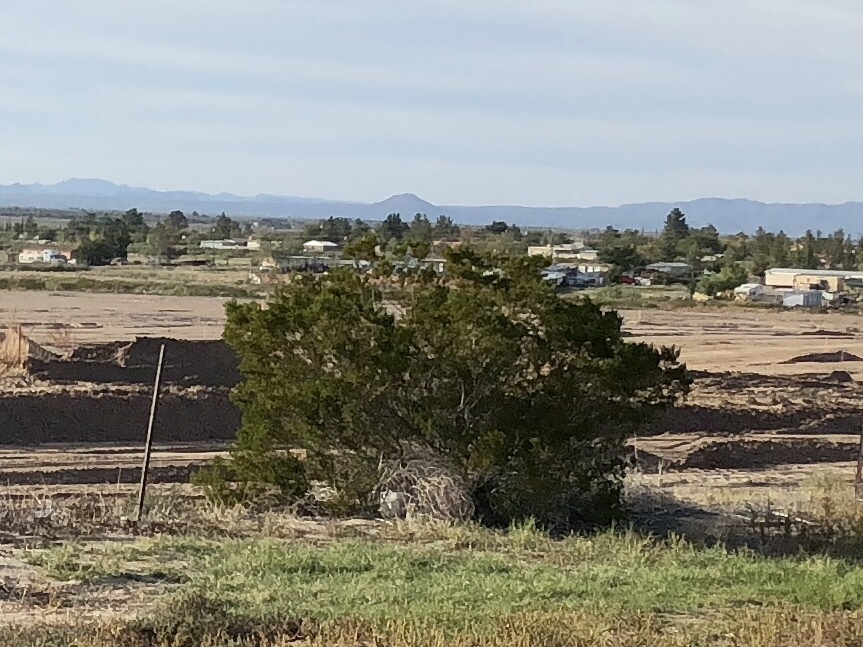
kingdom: Plantae
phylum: Tracheophyta
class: Magnoliopsida
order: Zygophyllales
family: Zygophyllaceae
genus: Larrea
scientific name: Larrea tridentata
